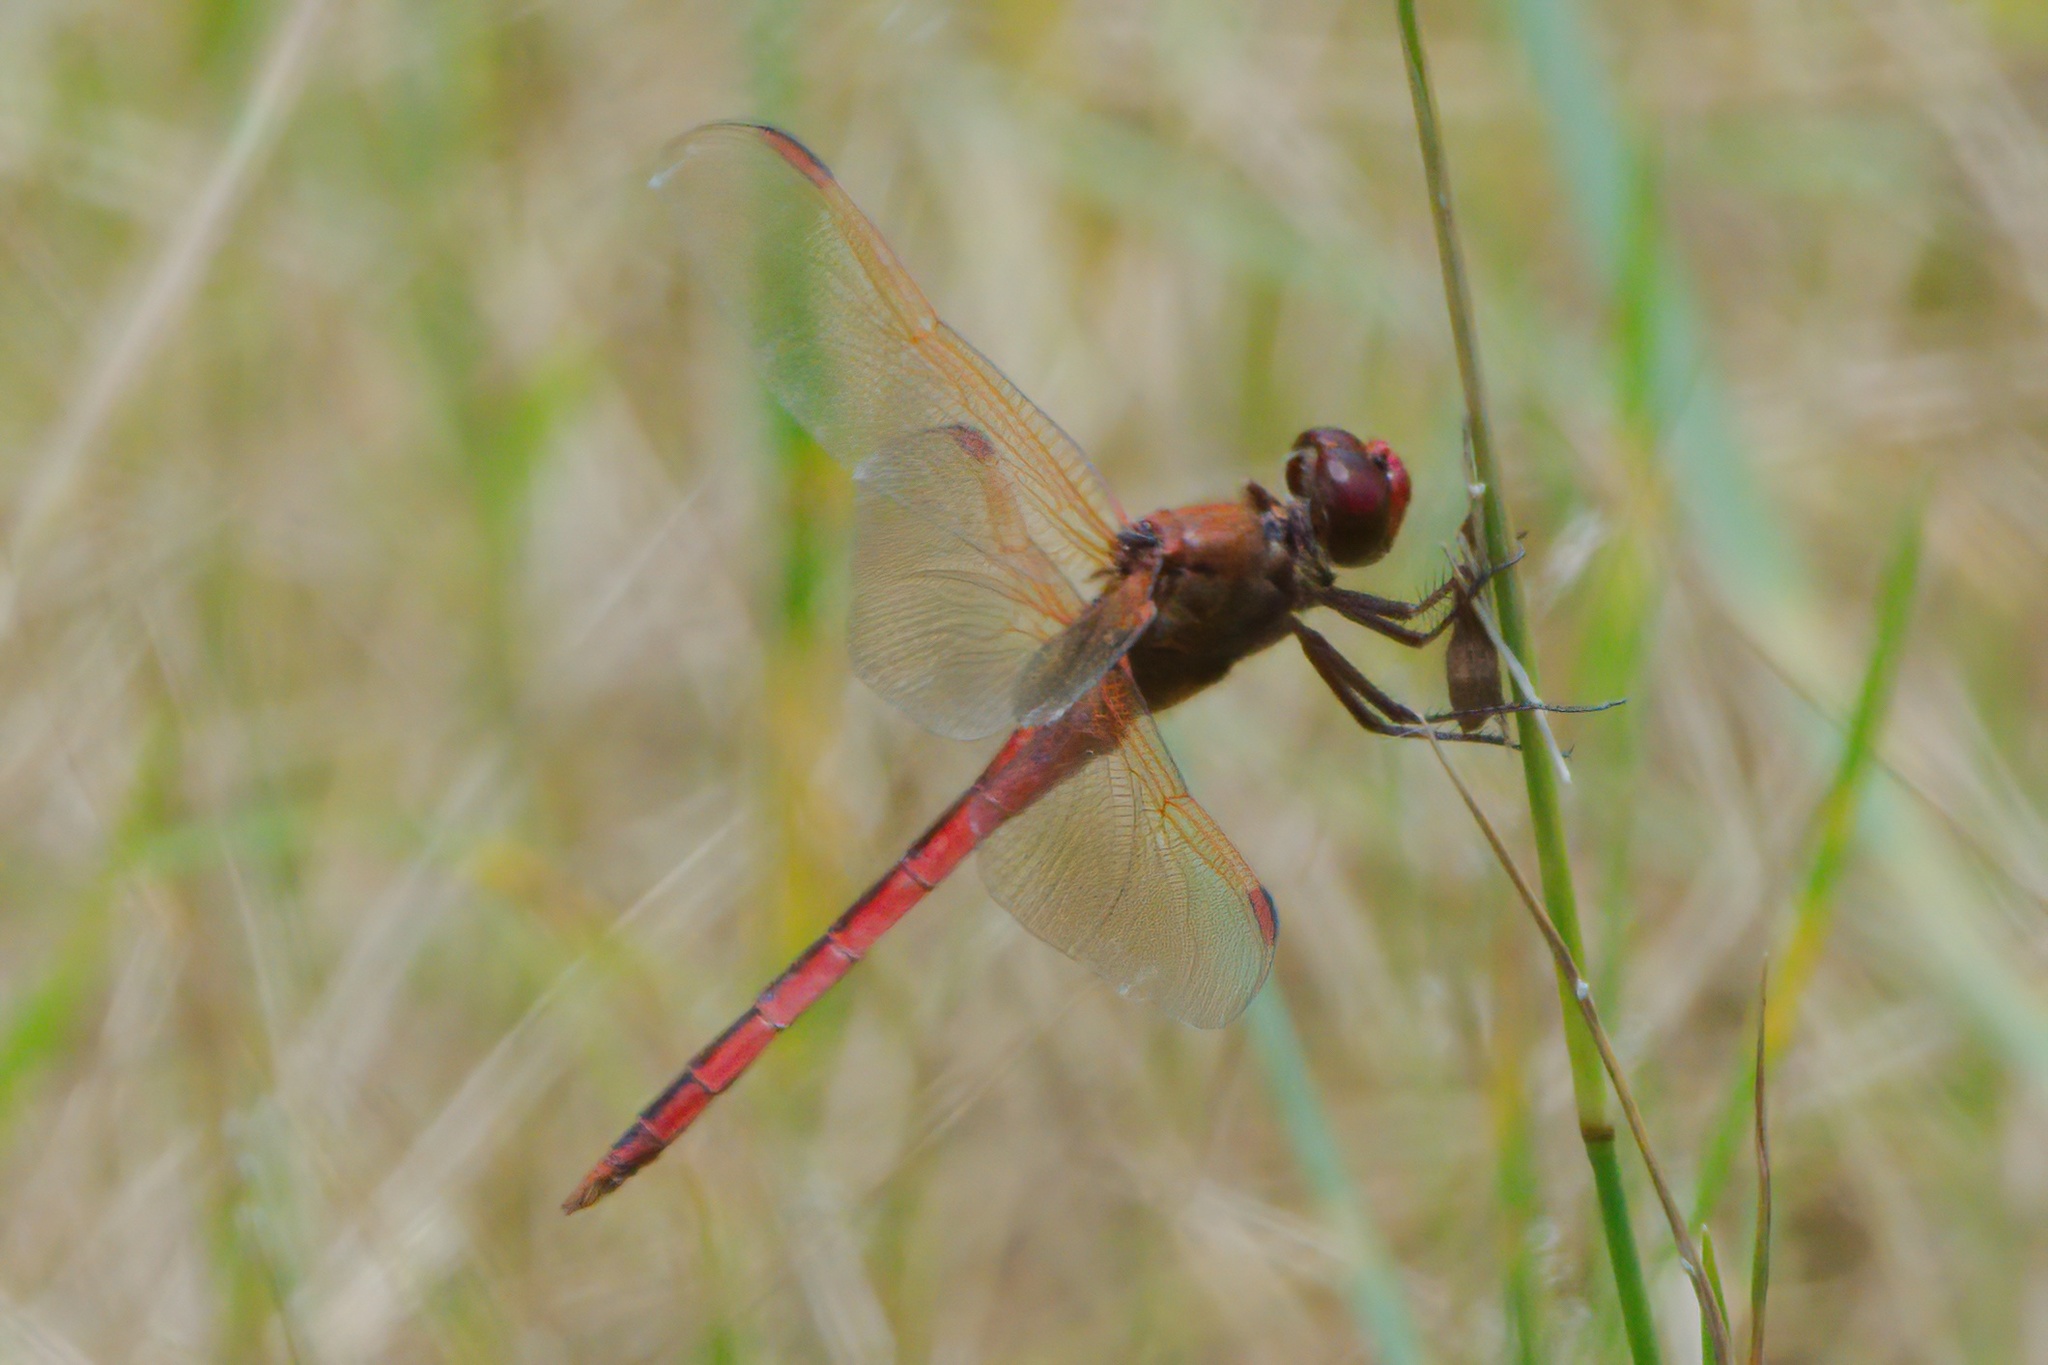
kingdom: Animalia
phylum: Arthropoda
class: Insecta
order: Odonata
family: Libellulidae
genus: Libellula
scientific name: Libellula needhami
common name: Needham's skimmer
